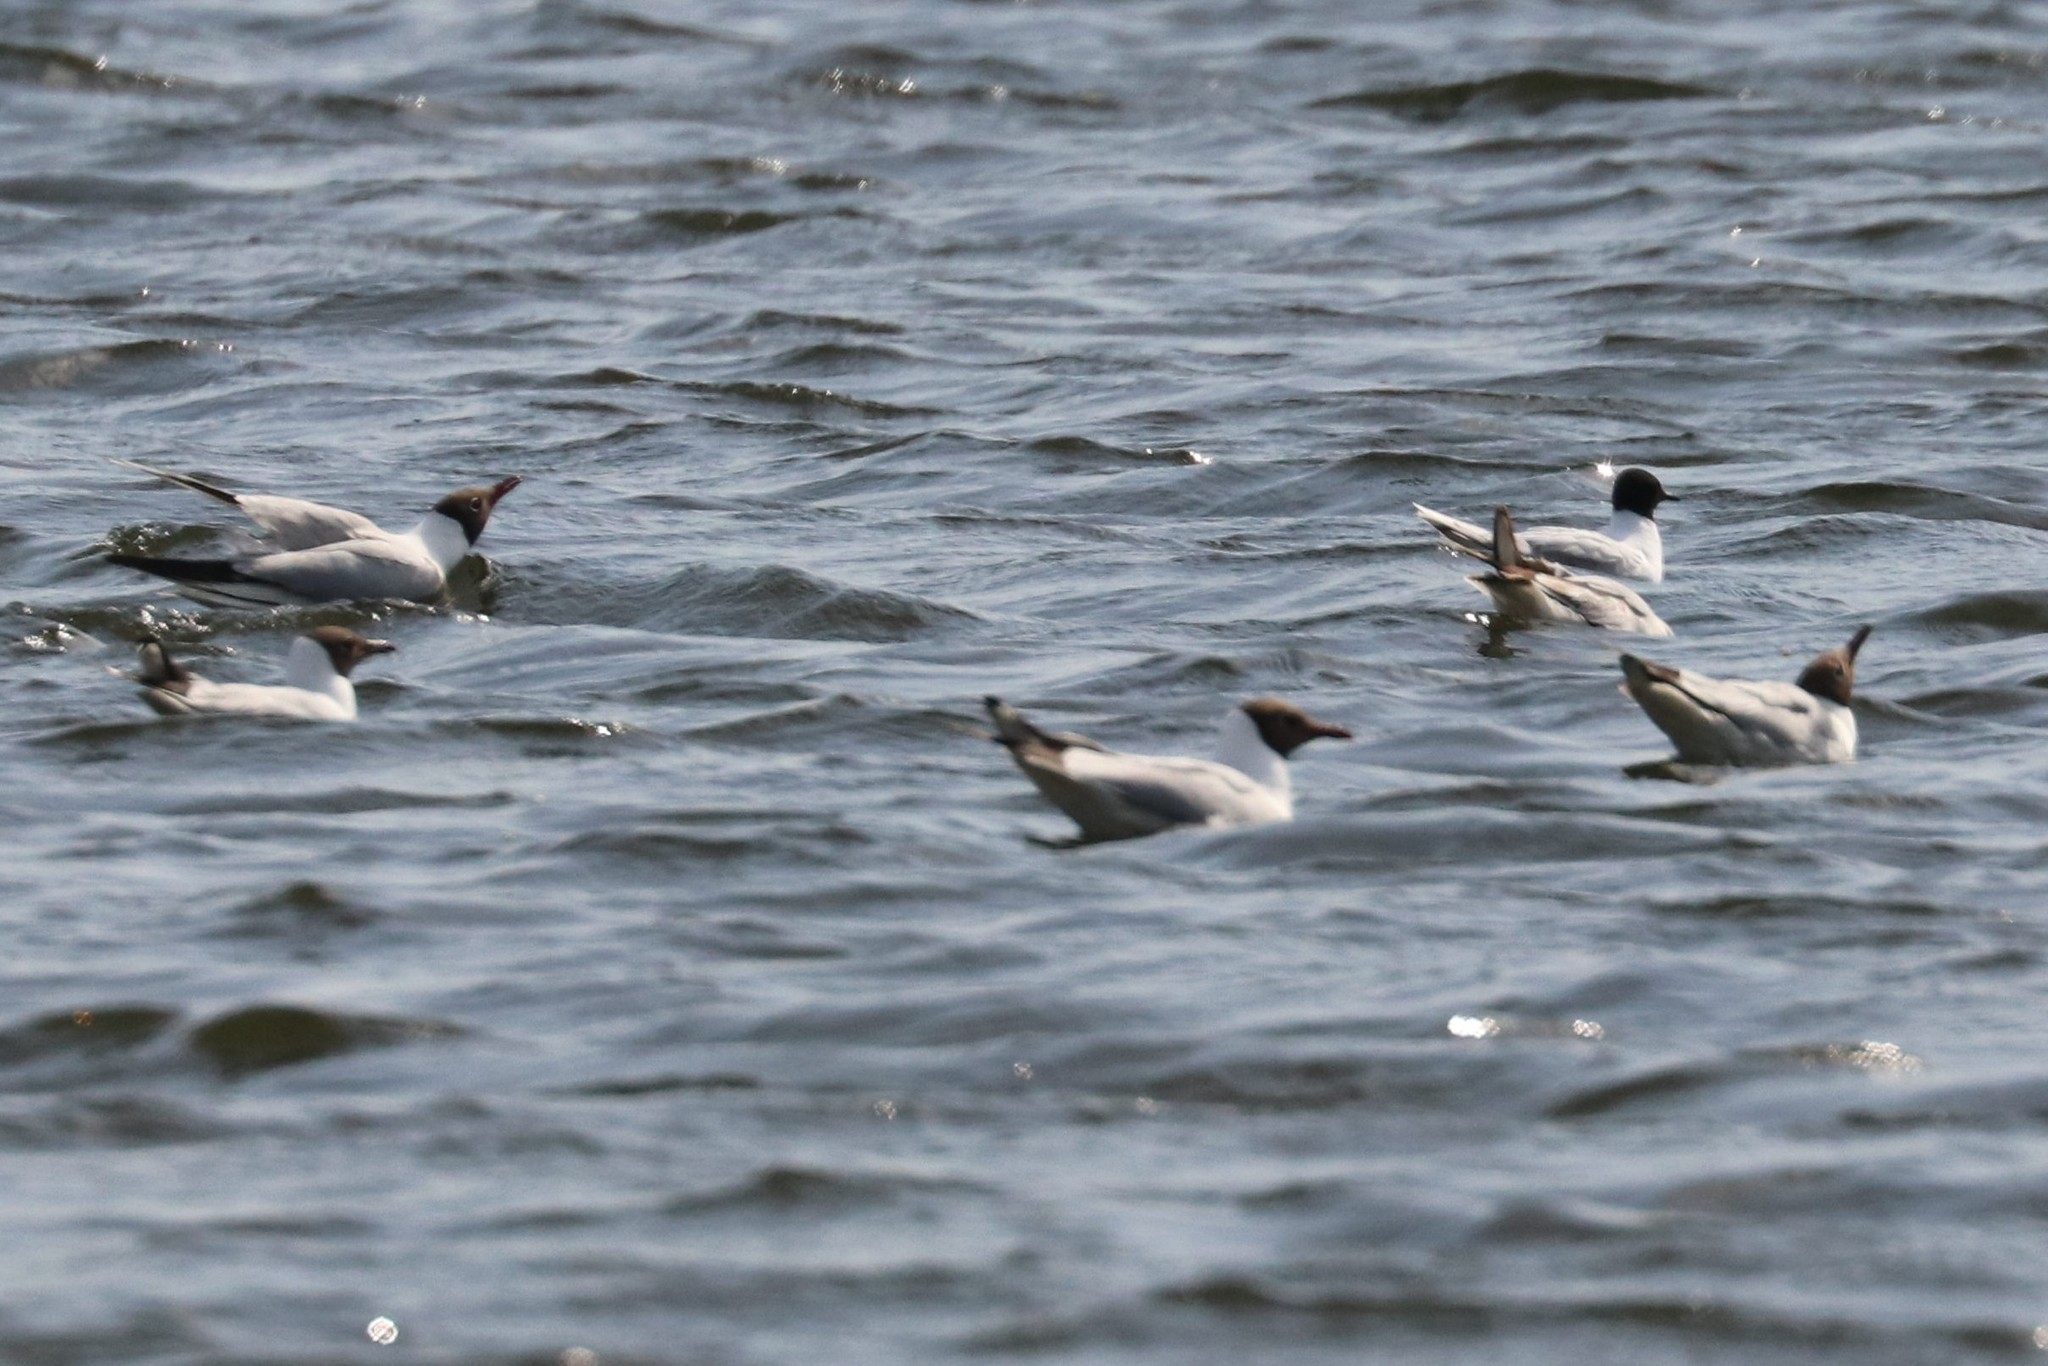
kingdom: Animalia
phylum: Chordata
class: Aves
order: Charadriiformes
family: Laridae
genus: Chroicocephalus
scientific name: Chroicocephalus ridibundus
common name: Black-headed gull
